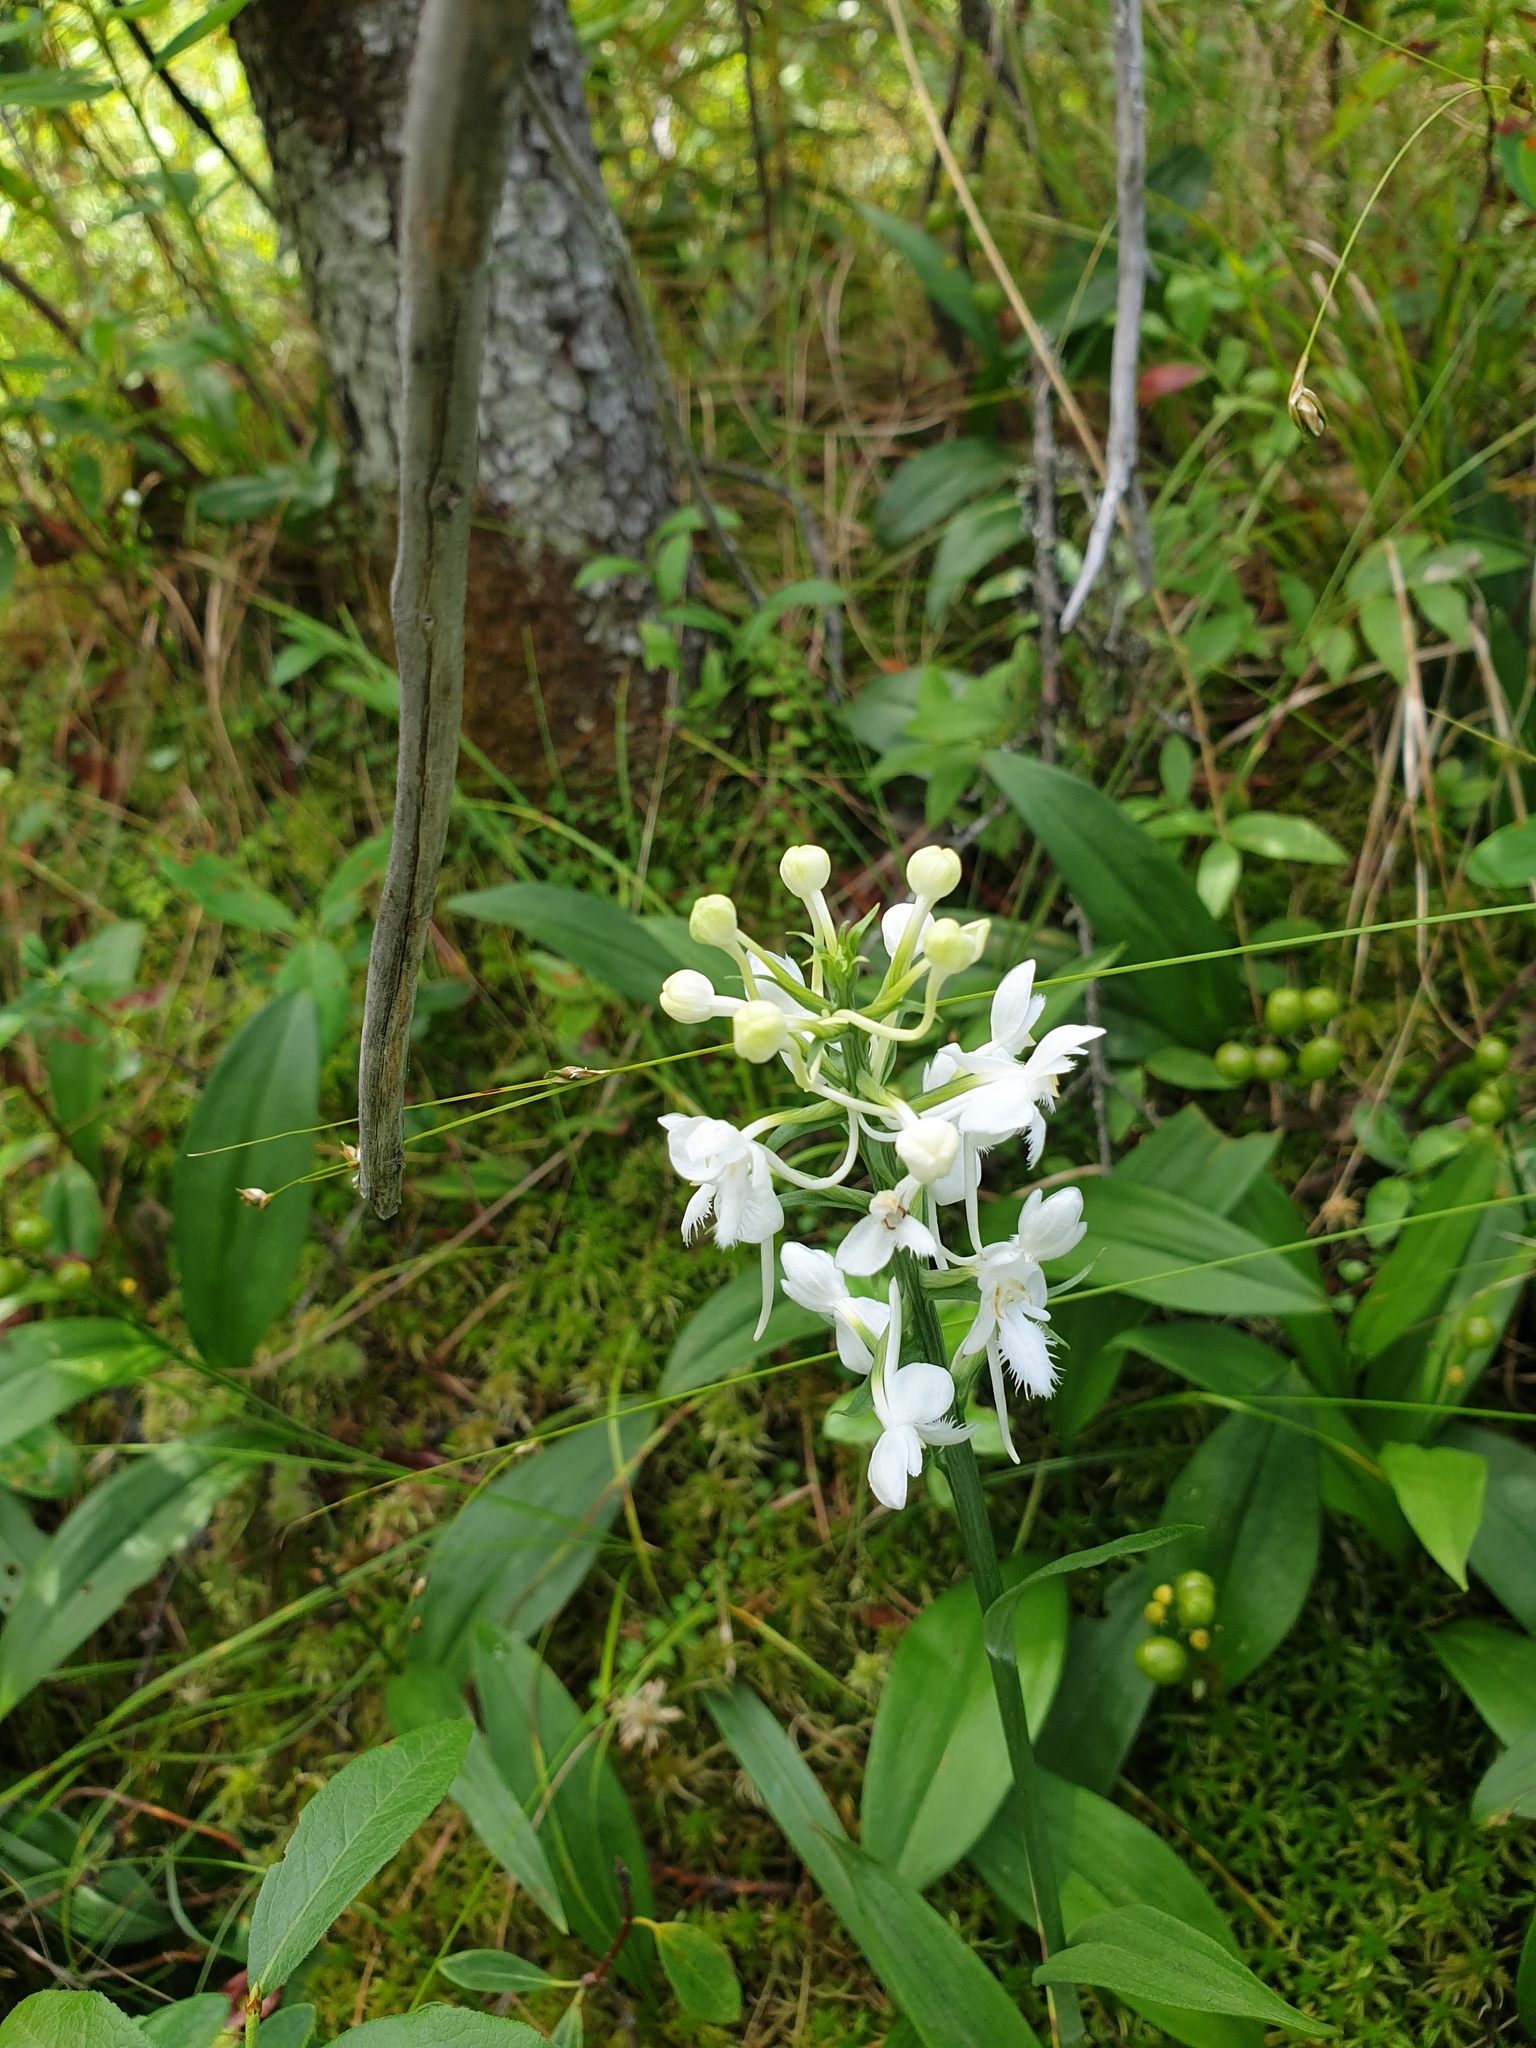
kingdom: Plantae
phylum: Tracheophyta
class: Liliopsida
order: Asparagales
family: Orchidaceae
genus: Platanthera
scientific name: Platanthera blephariglottis
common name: White fringed orchid
